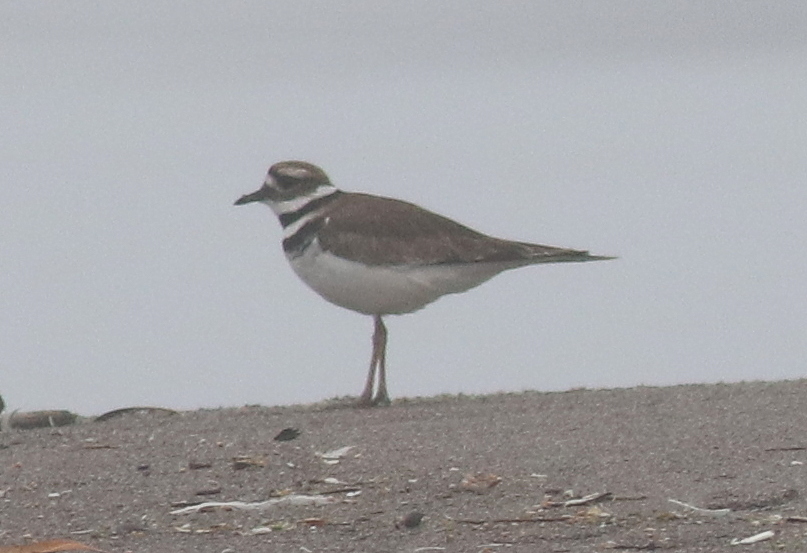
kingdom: Animalia
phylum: Chordata
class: Aves
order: Charadriiformes
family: Charadriidae
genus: Charadrius
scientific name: Charadrius vociferus
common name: Killdeer
